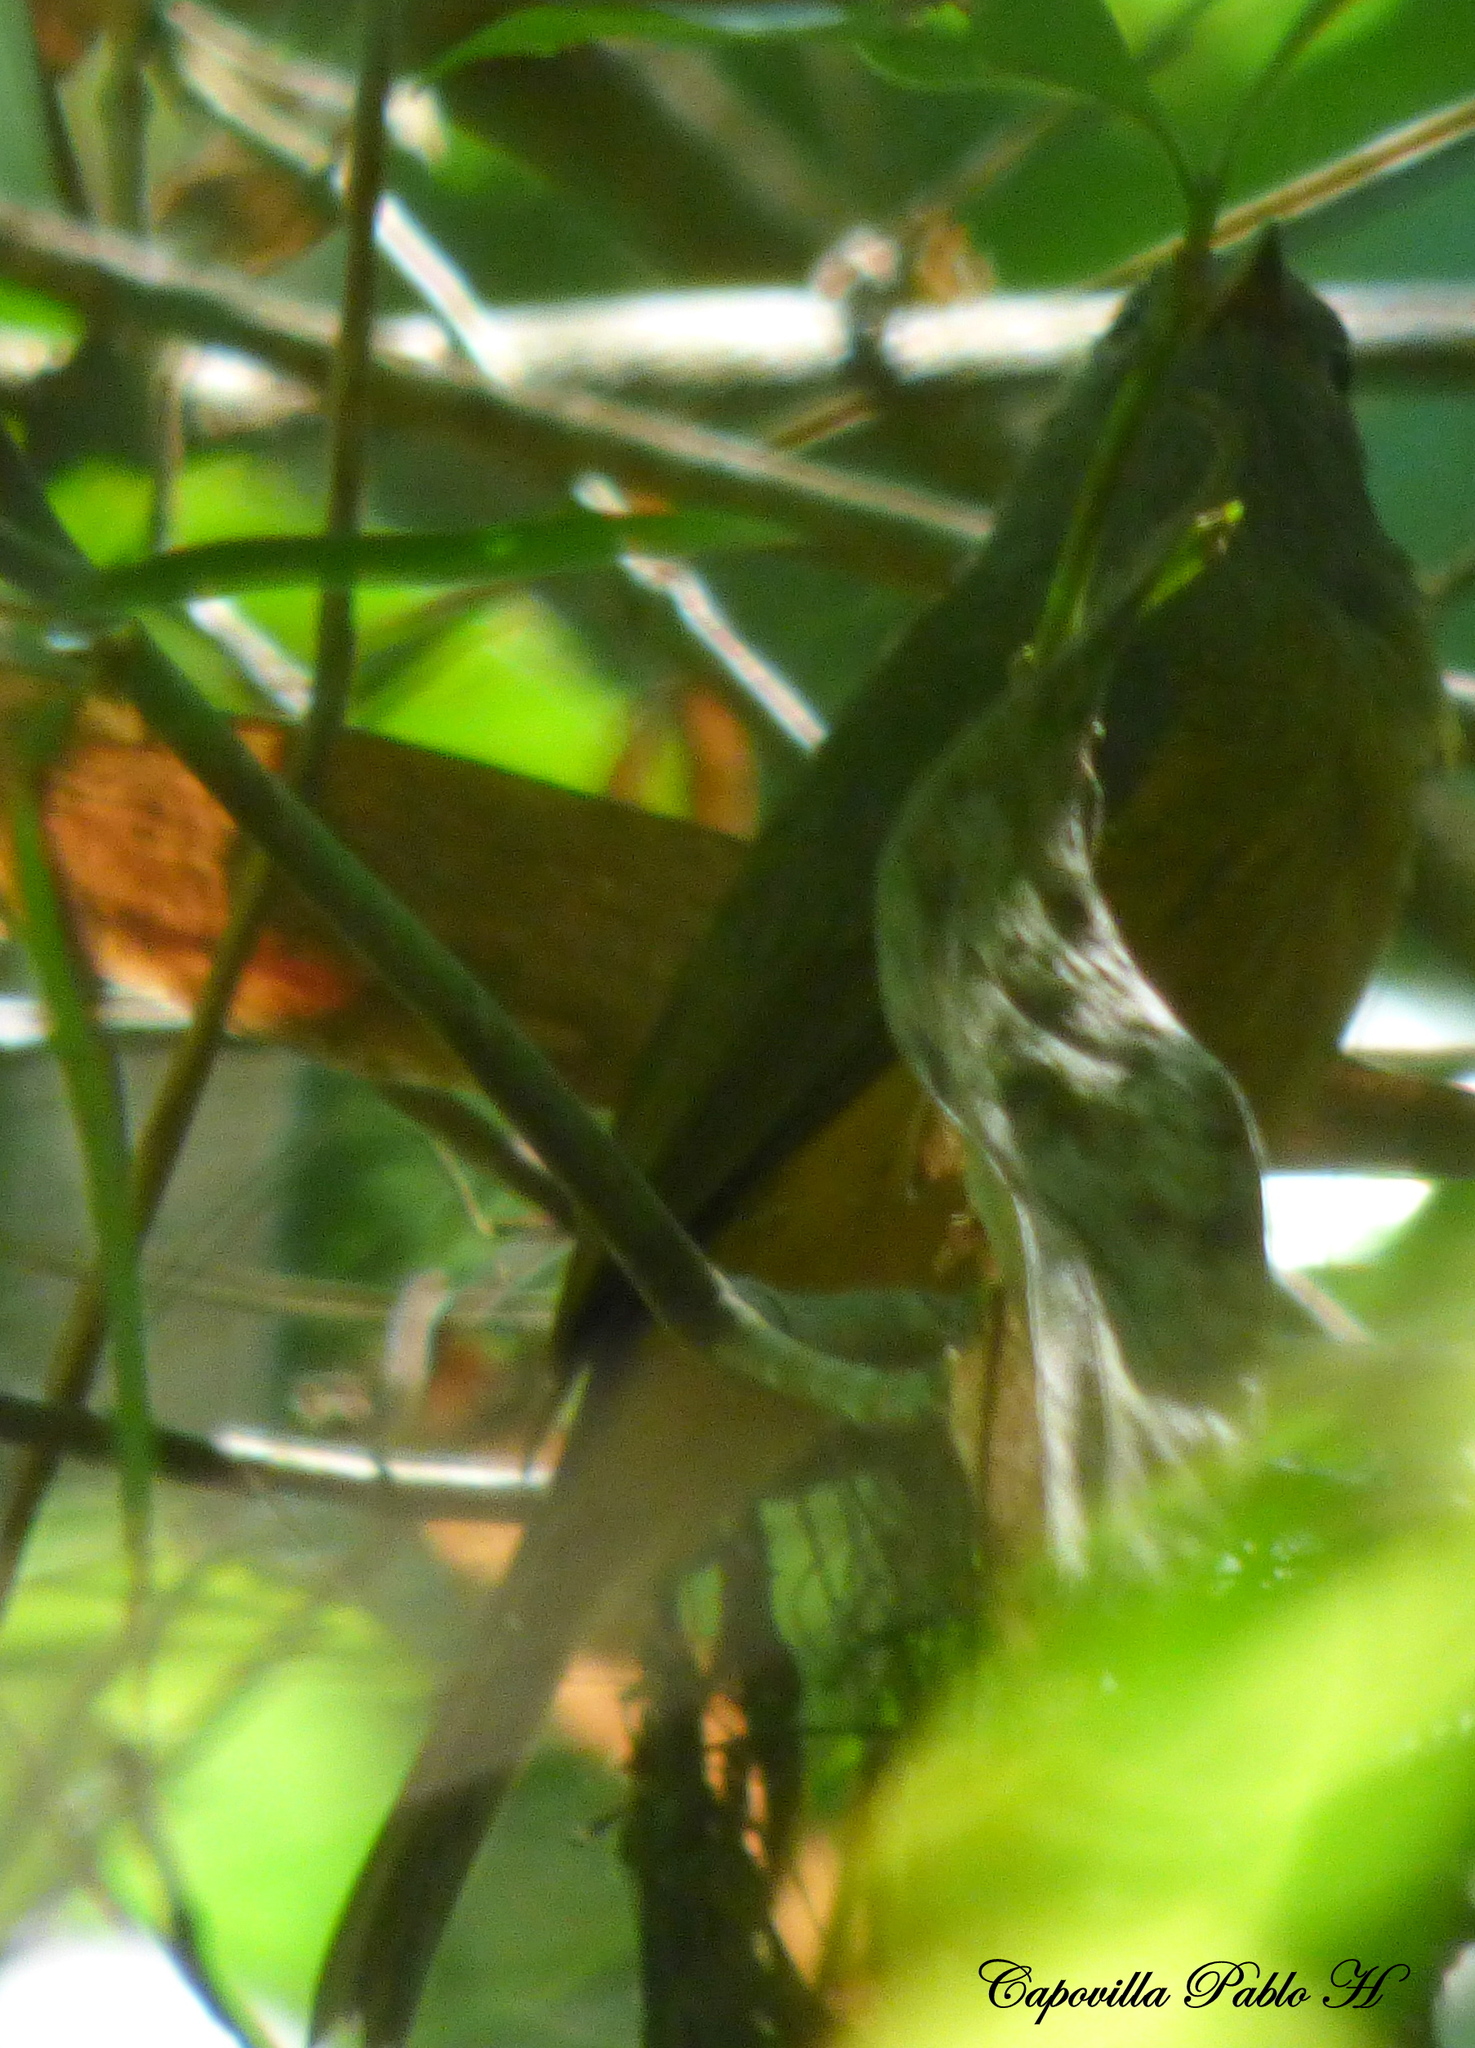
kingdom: Animalia
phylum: Chordata
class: Aves
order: Passeriformes
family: Tyrannidae
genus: Mionectes
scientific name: Mionectes rufiventris
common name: Grey-hooded flycatcher
